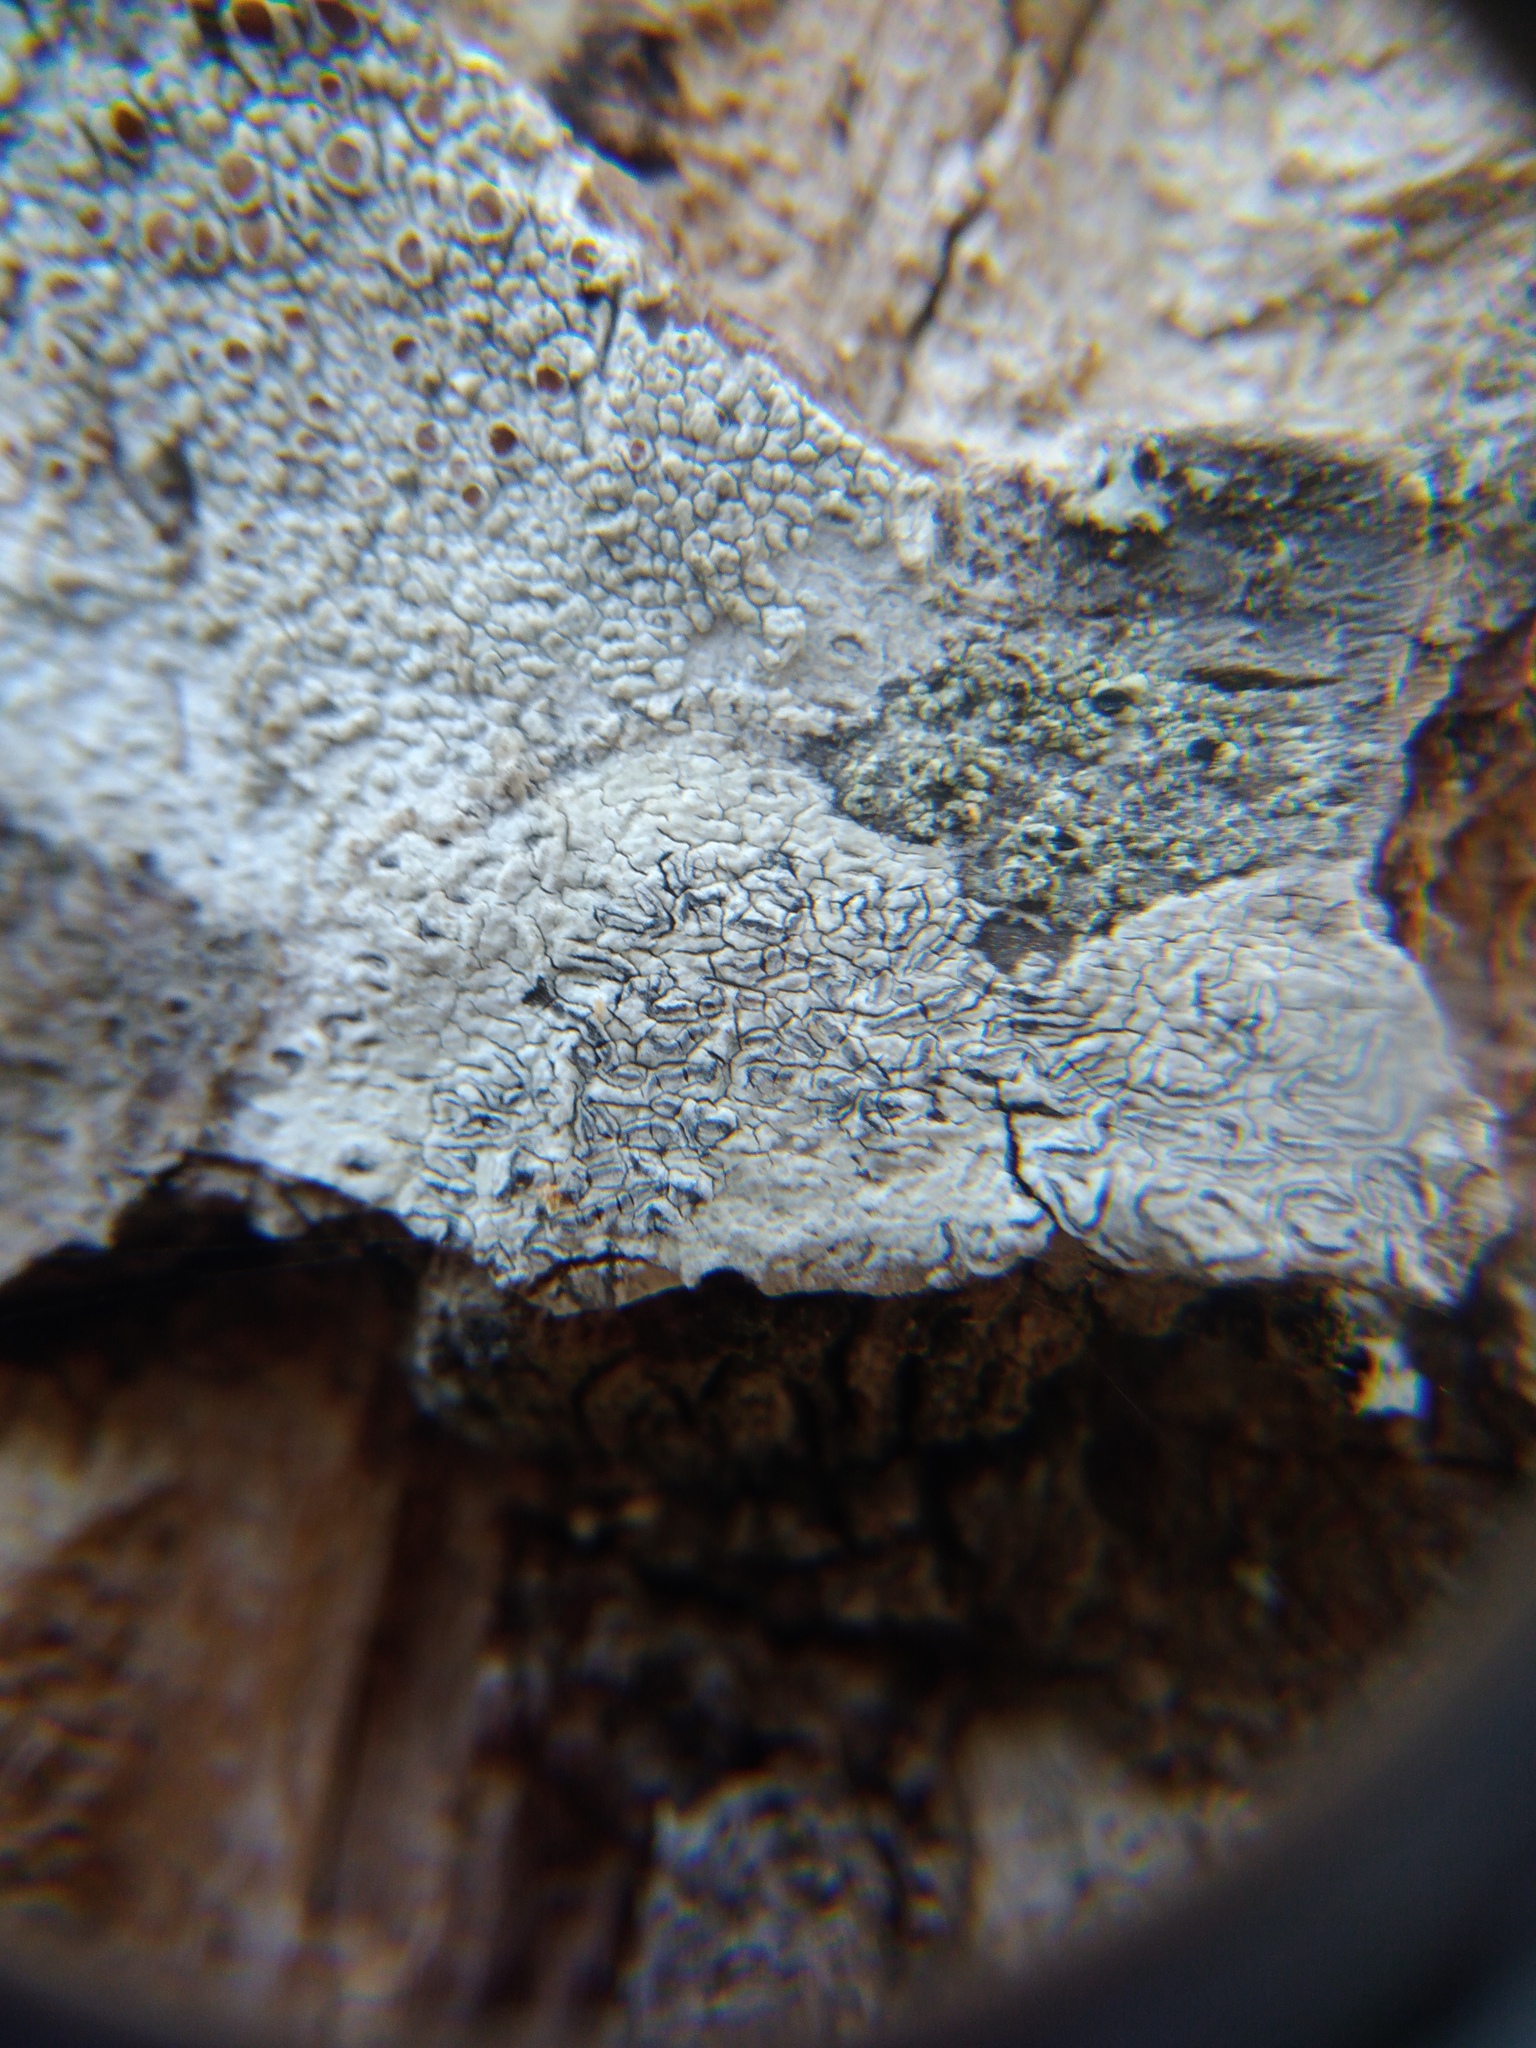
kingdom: Fungi
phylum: Ascomycota
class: Lecanoromycetes
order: Ostropales
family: Graphidaceae
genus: Graphis
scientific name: Graphis scripta
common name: Script lichen
